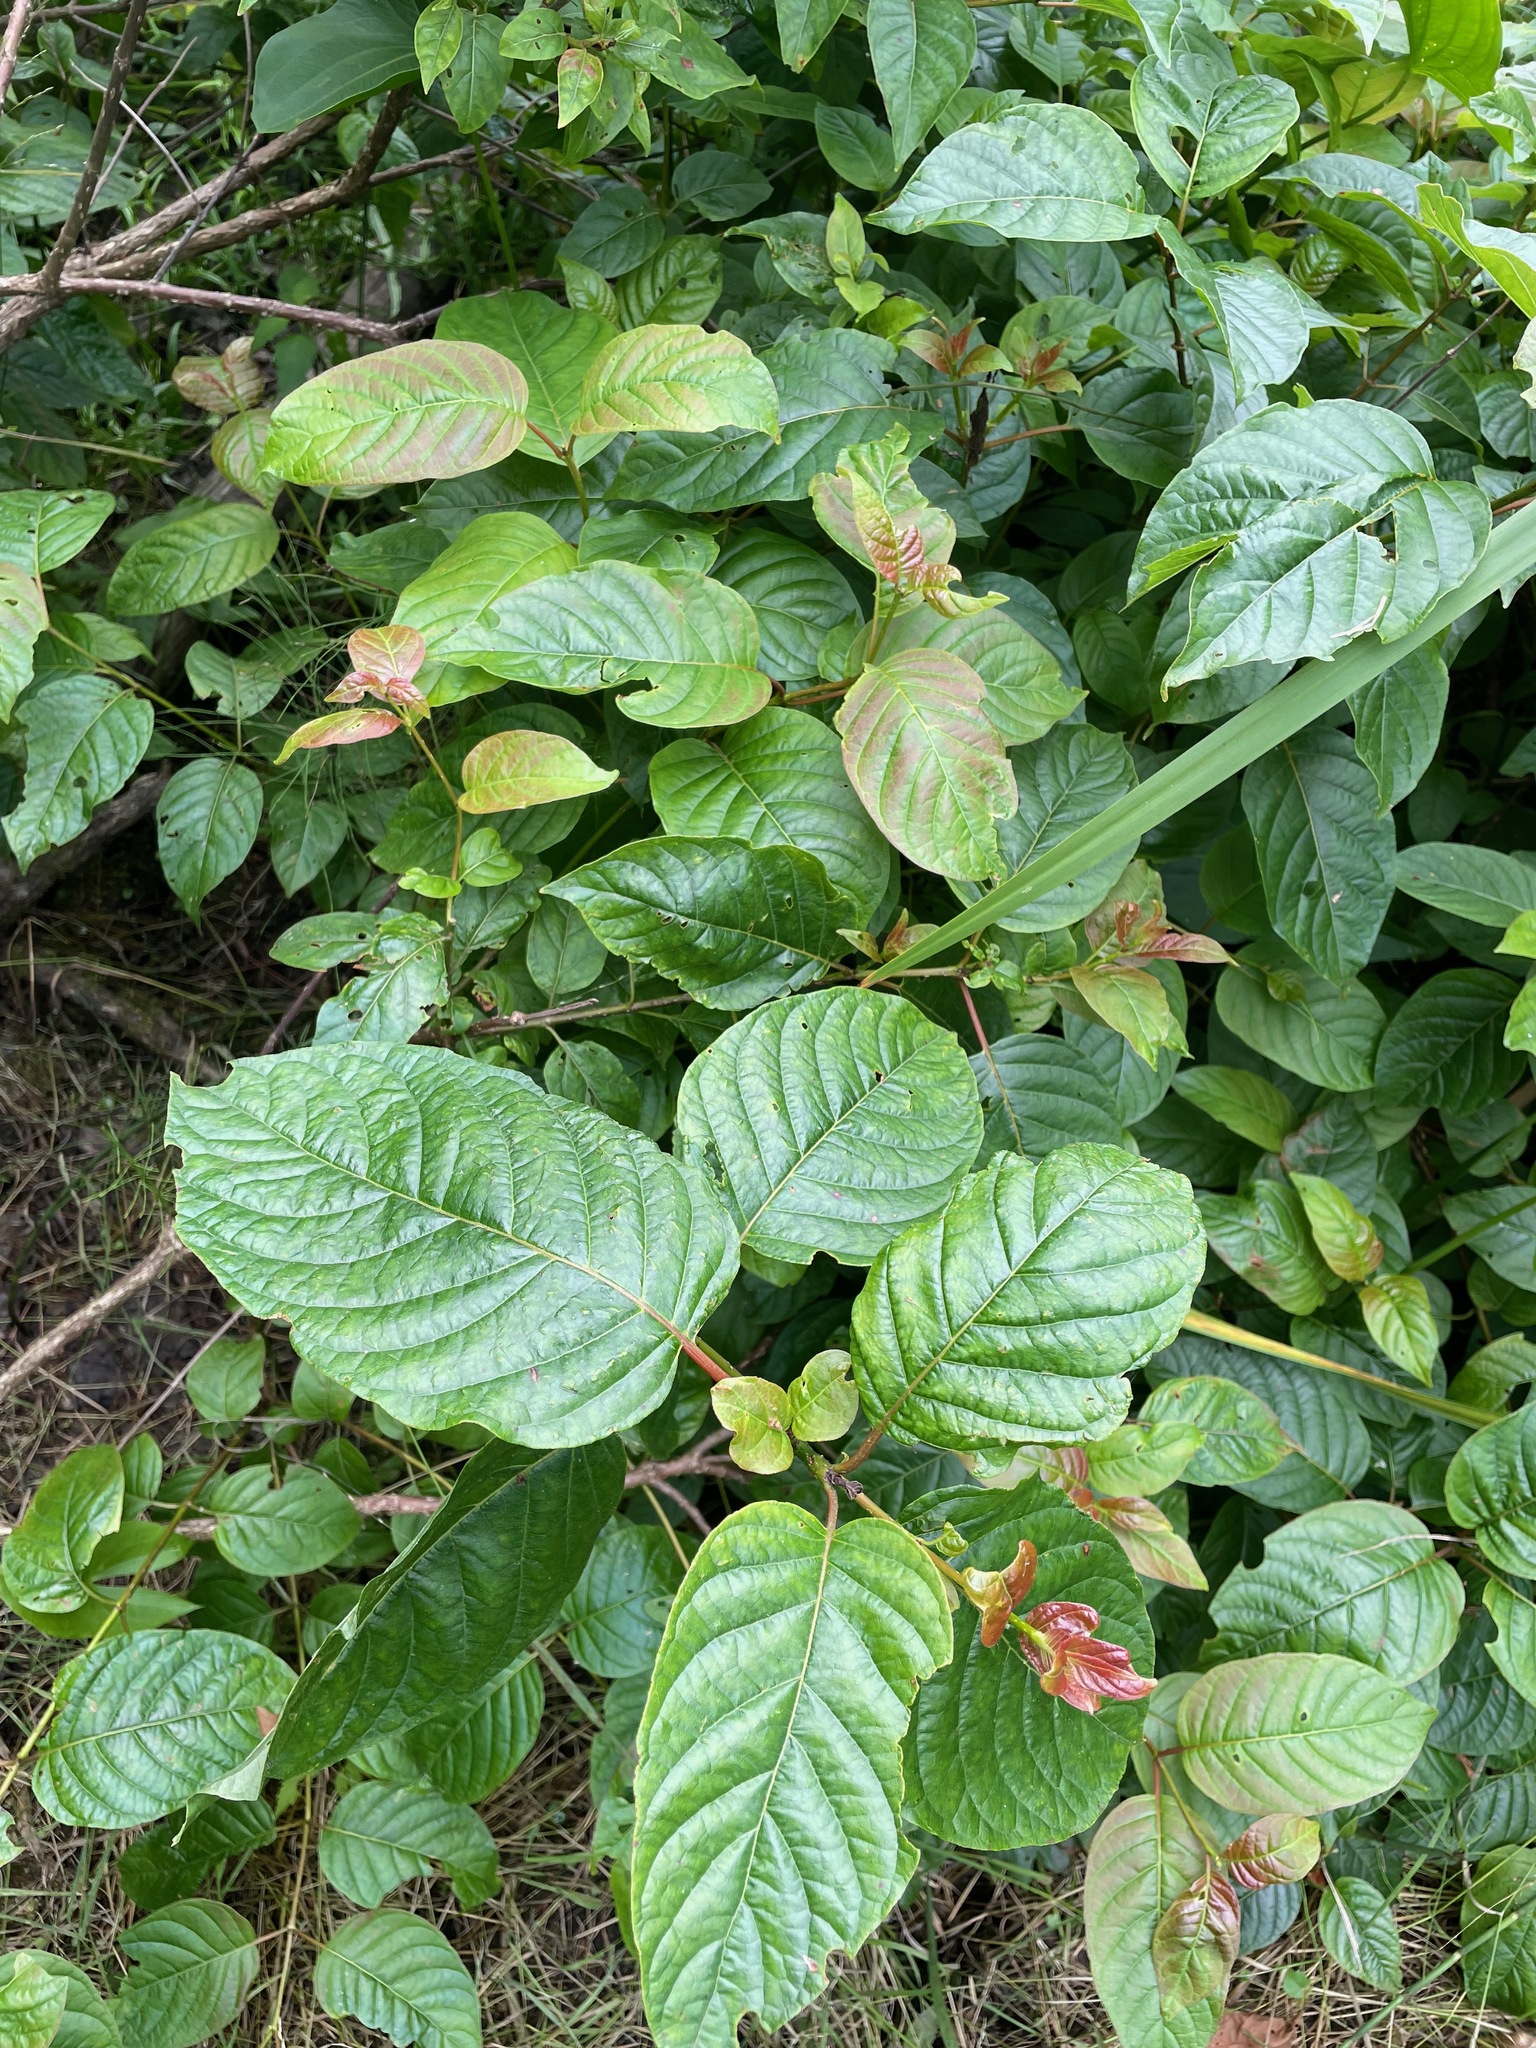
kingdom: Plantae
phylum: Tracheophyta
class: Magnoliopsida
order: Gentianales
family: Rubiaceae
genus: Cephalanthus
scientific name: Cephalanthus occidentalis
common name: Button-willow
